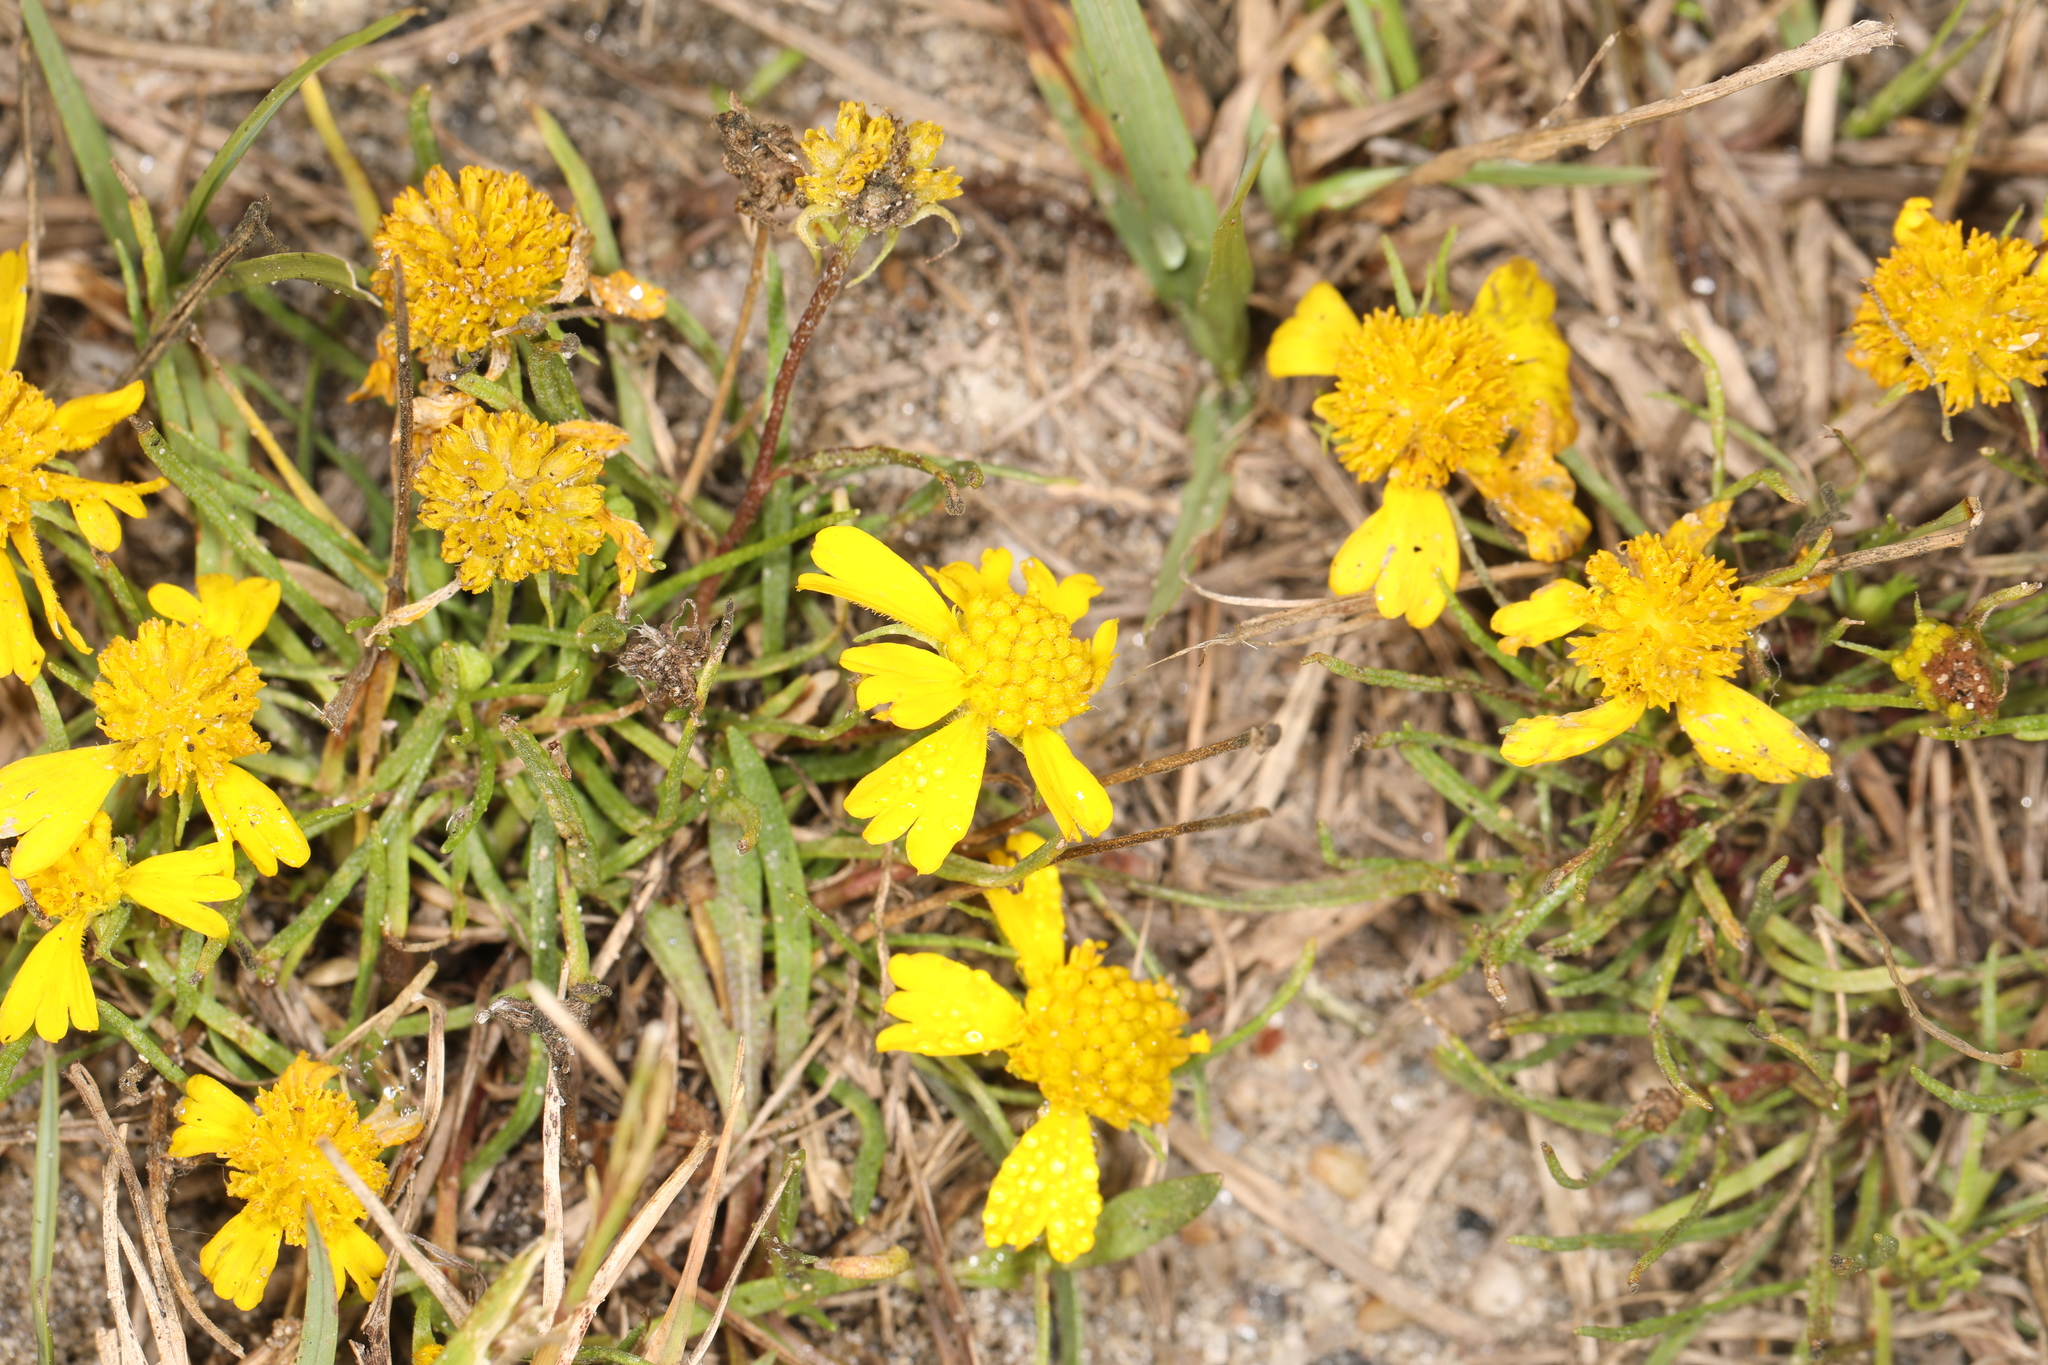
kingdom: Plantae
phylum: Tracheophyta
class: Magnoliopsida
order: Asterales
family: Asteraceae
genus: Helenium
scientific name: Helenium amarum
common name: Bitter sneezeweed
